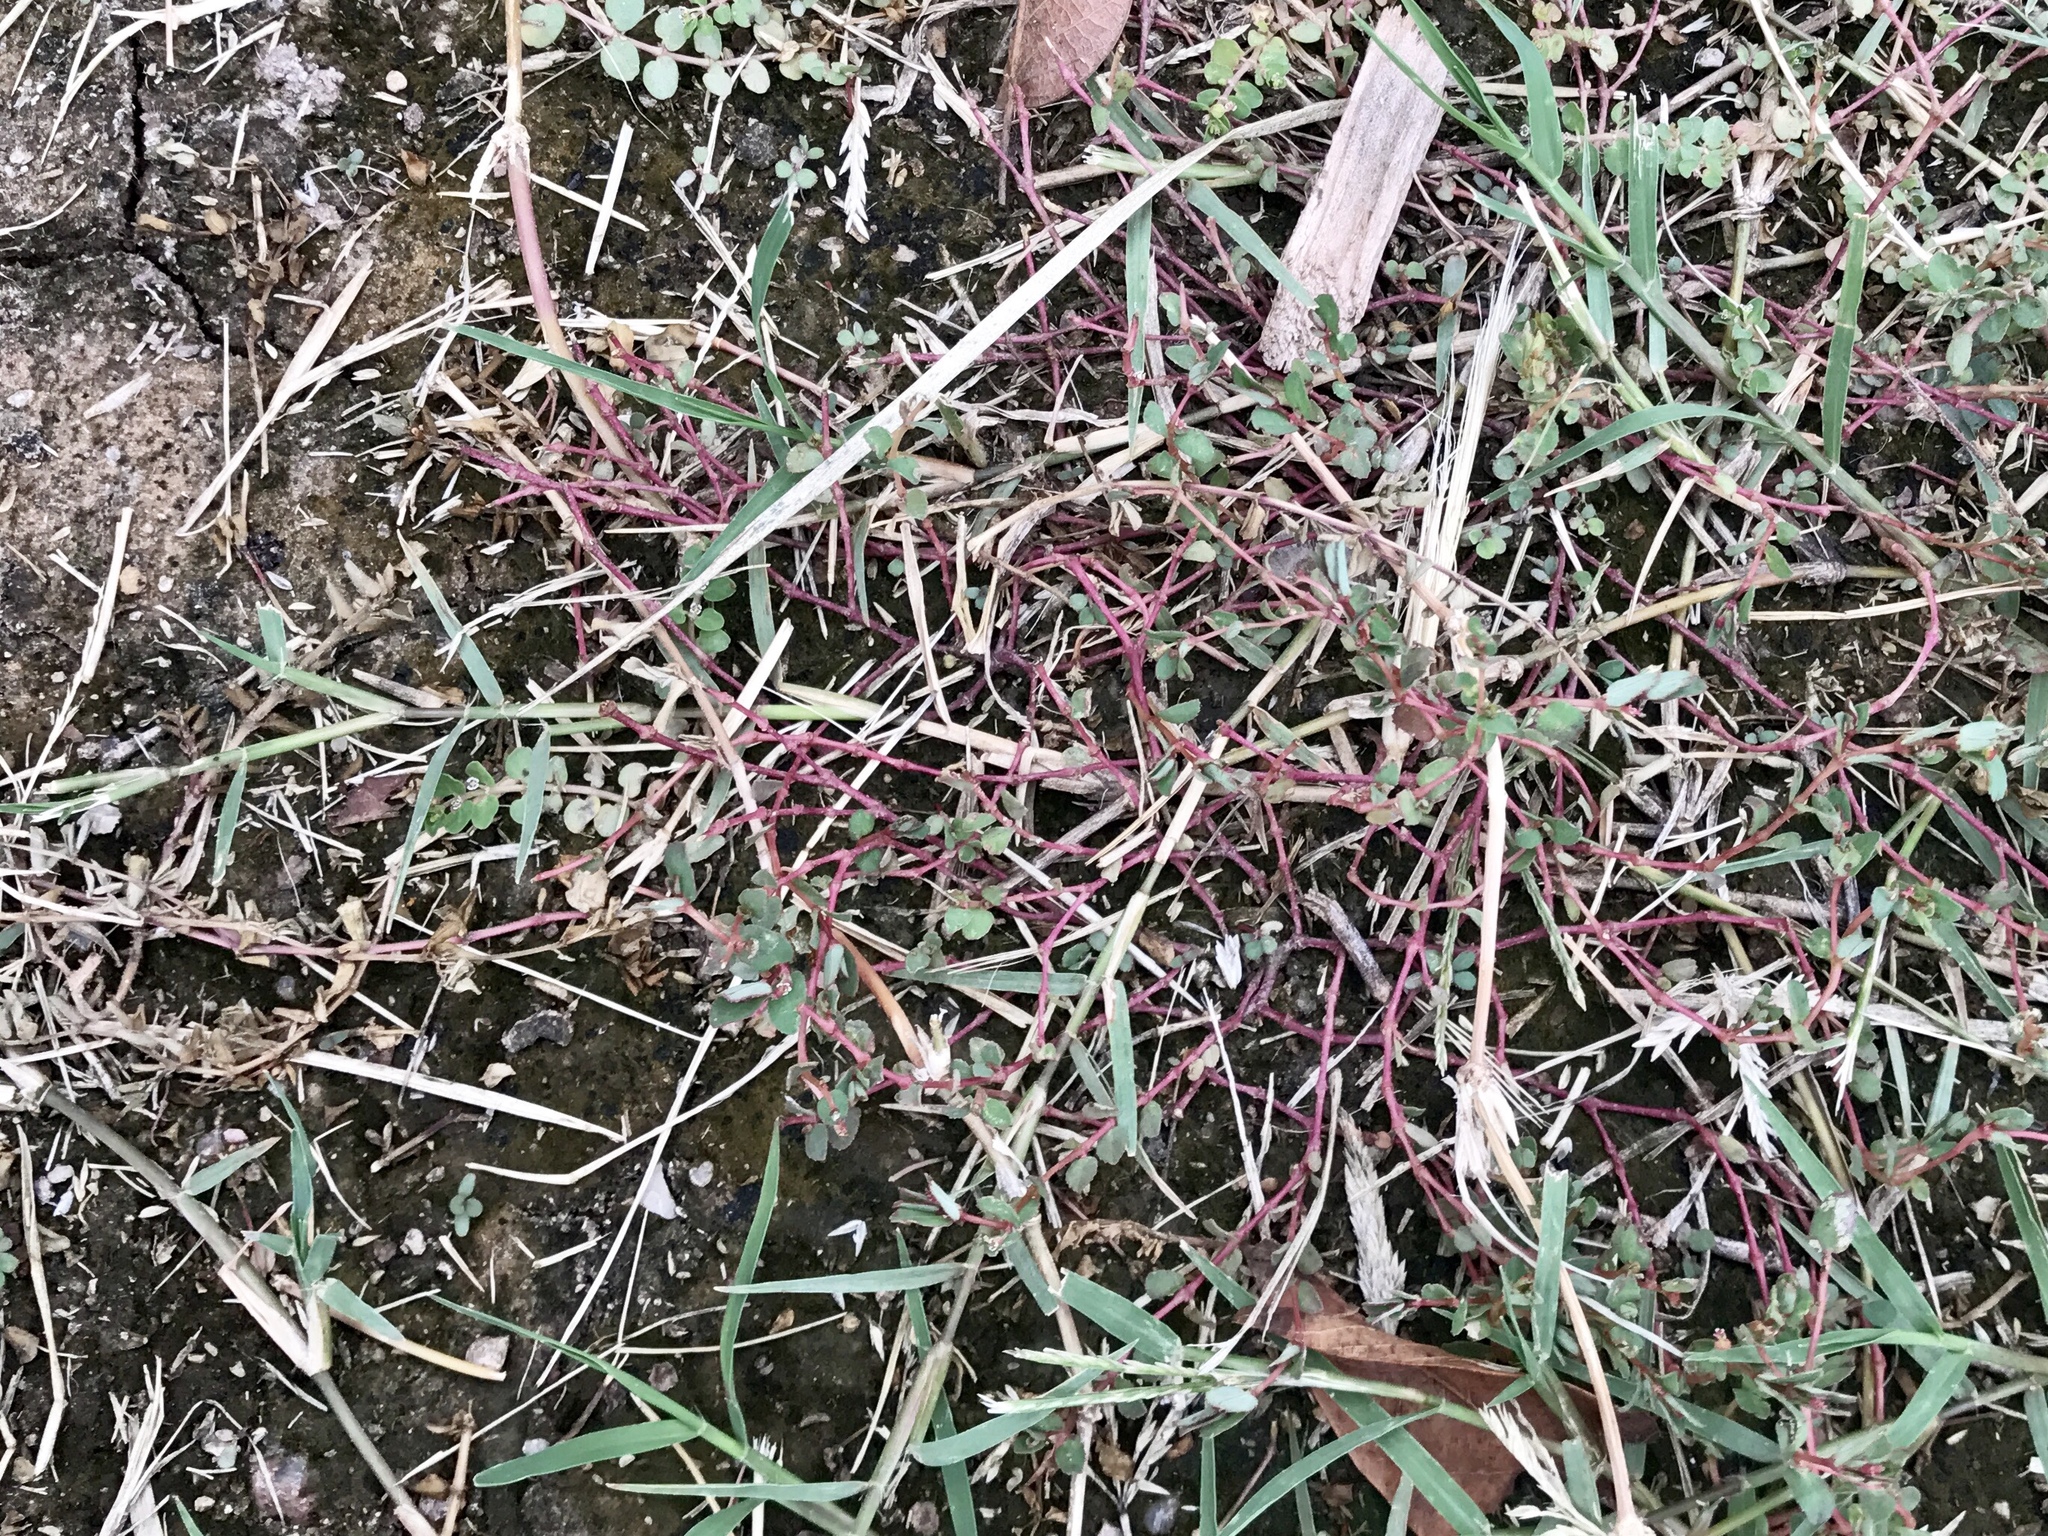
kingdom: Plantae
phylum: Tracheophyta
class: Magnoliopsida
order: Malpighiales
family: Euphorbiaceae
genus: Euphorbia
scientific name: Euphorbia vermiculata
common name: Hairy spurge
